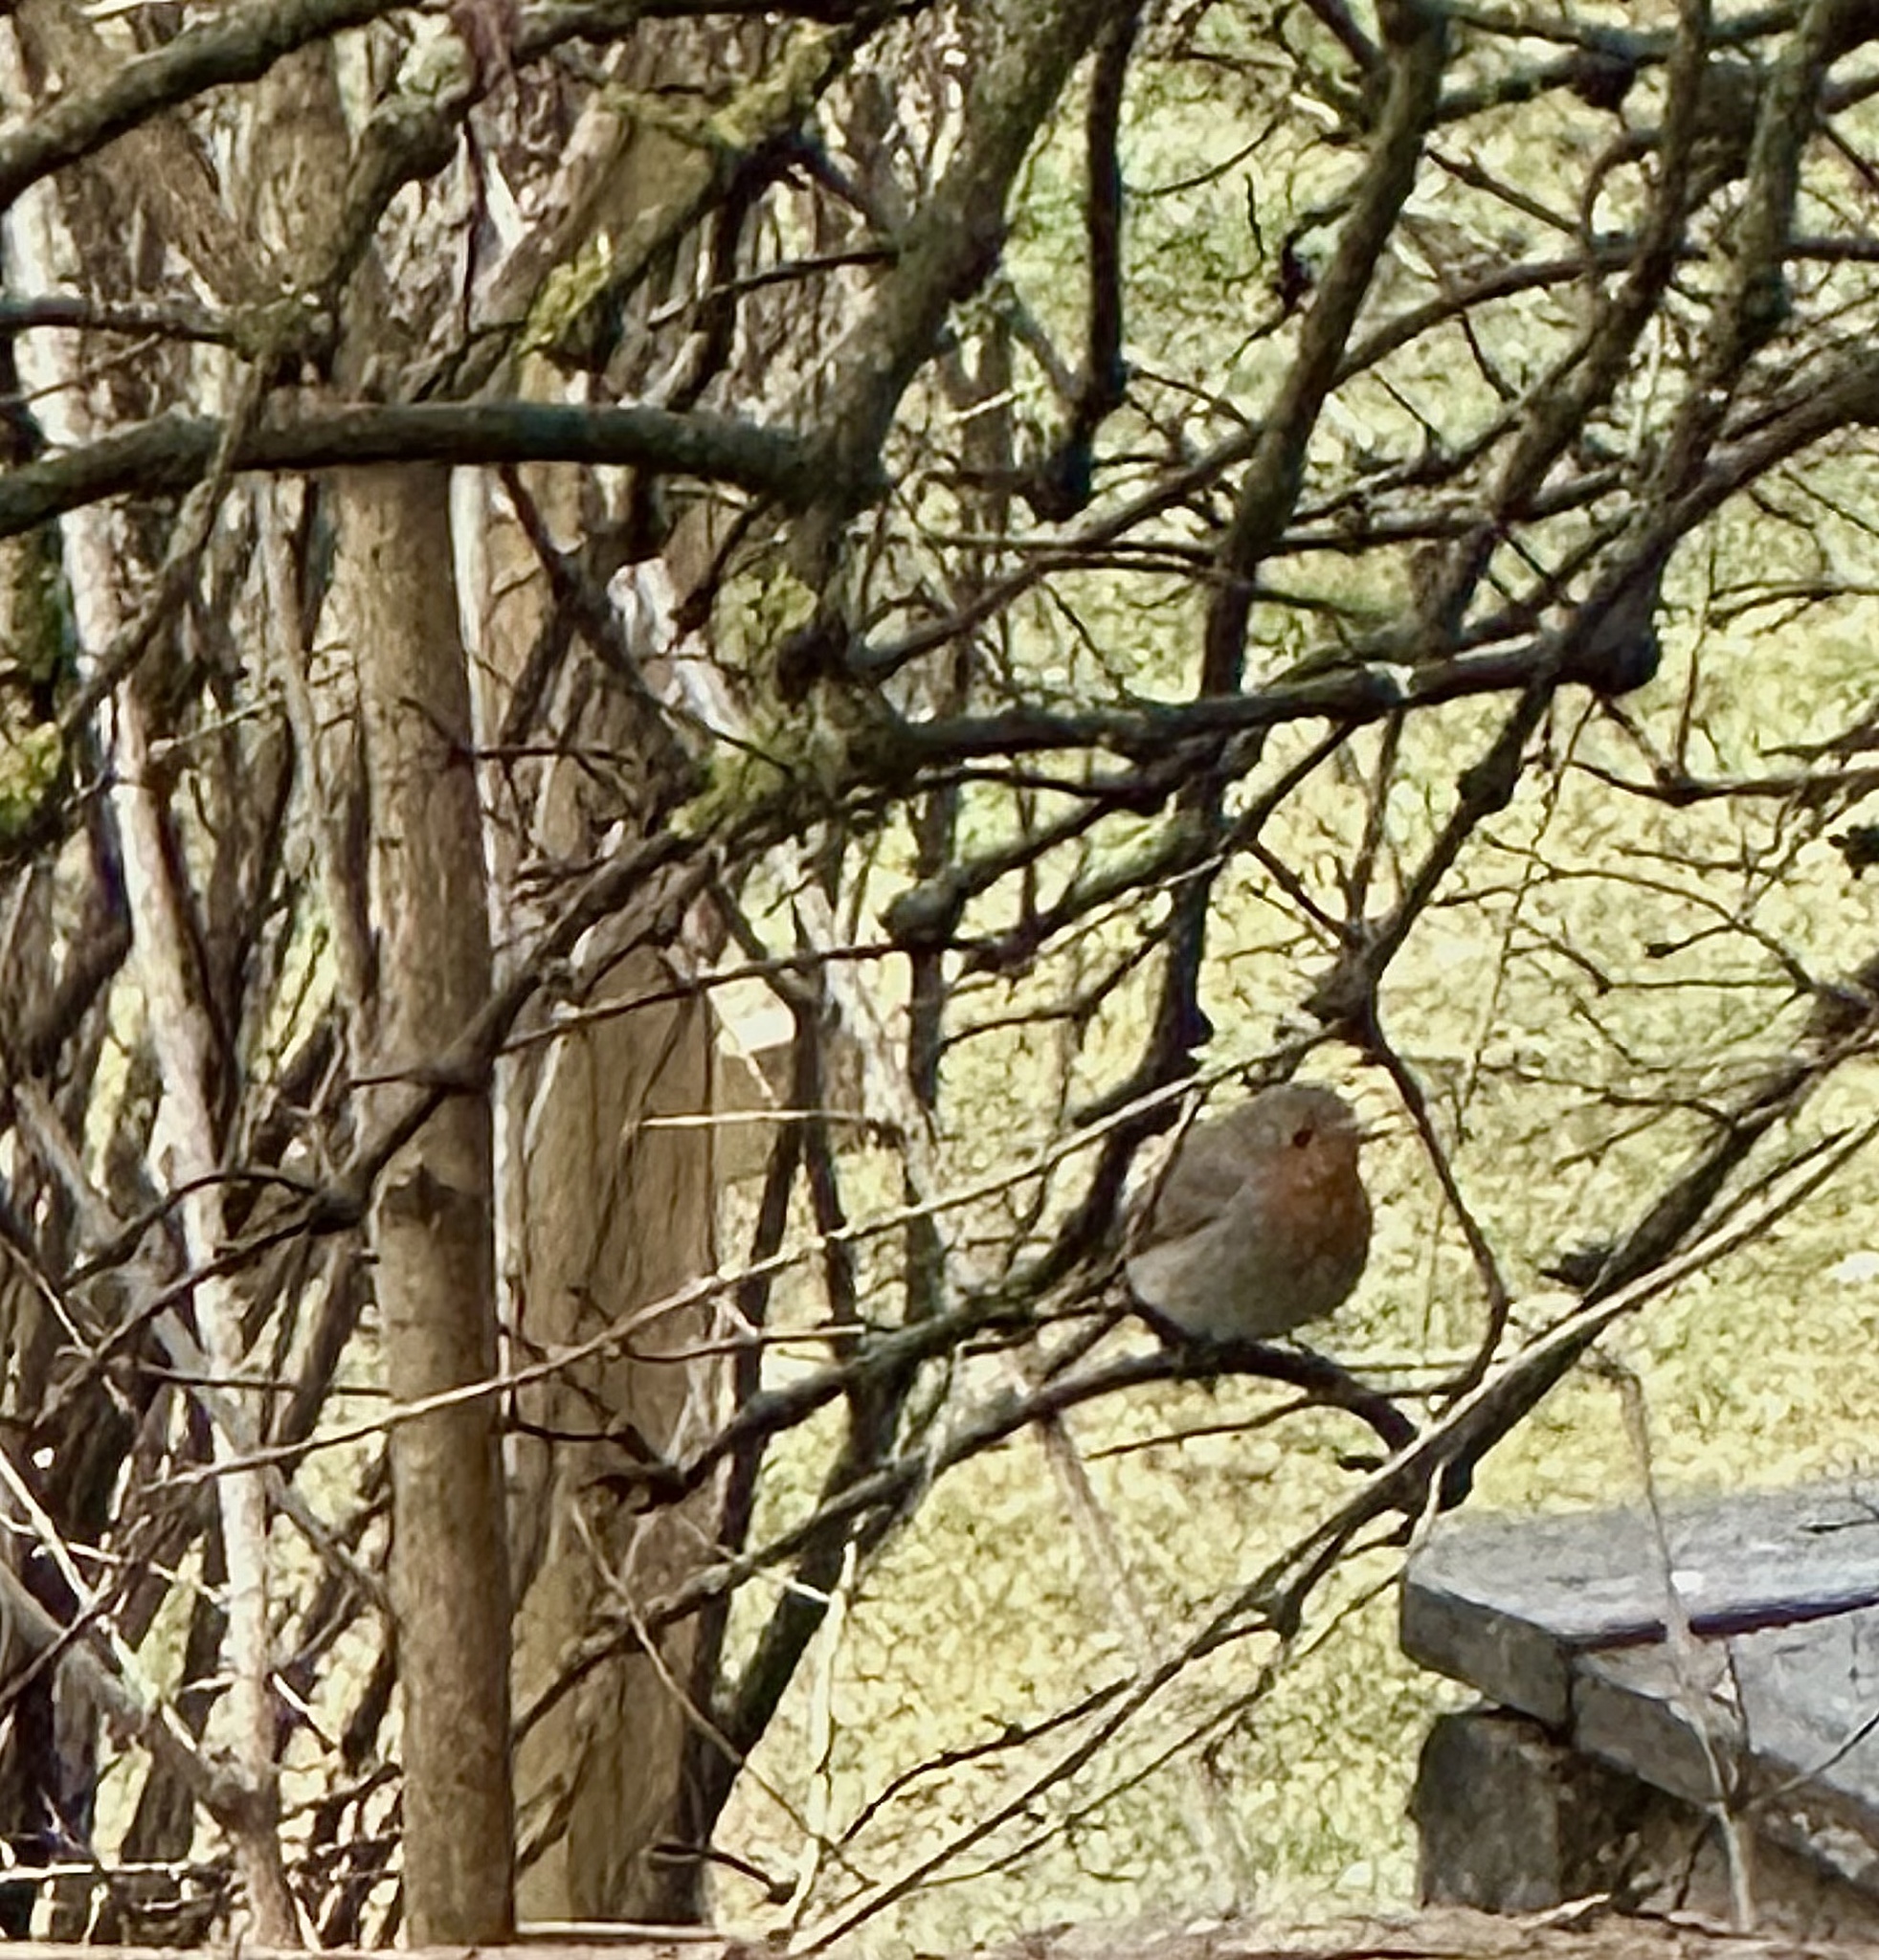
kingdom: Animalia
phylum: Chordata
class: Aves
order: Passeriformes
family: Muscicapidae
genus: Erithacus
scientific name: Erithacus rubecula
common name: European robin
